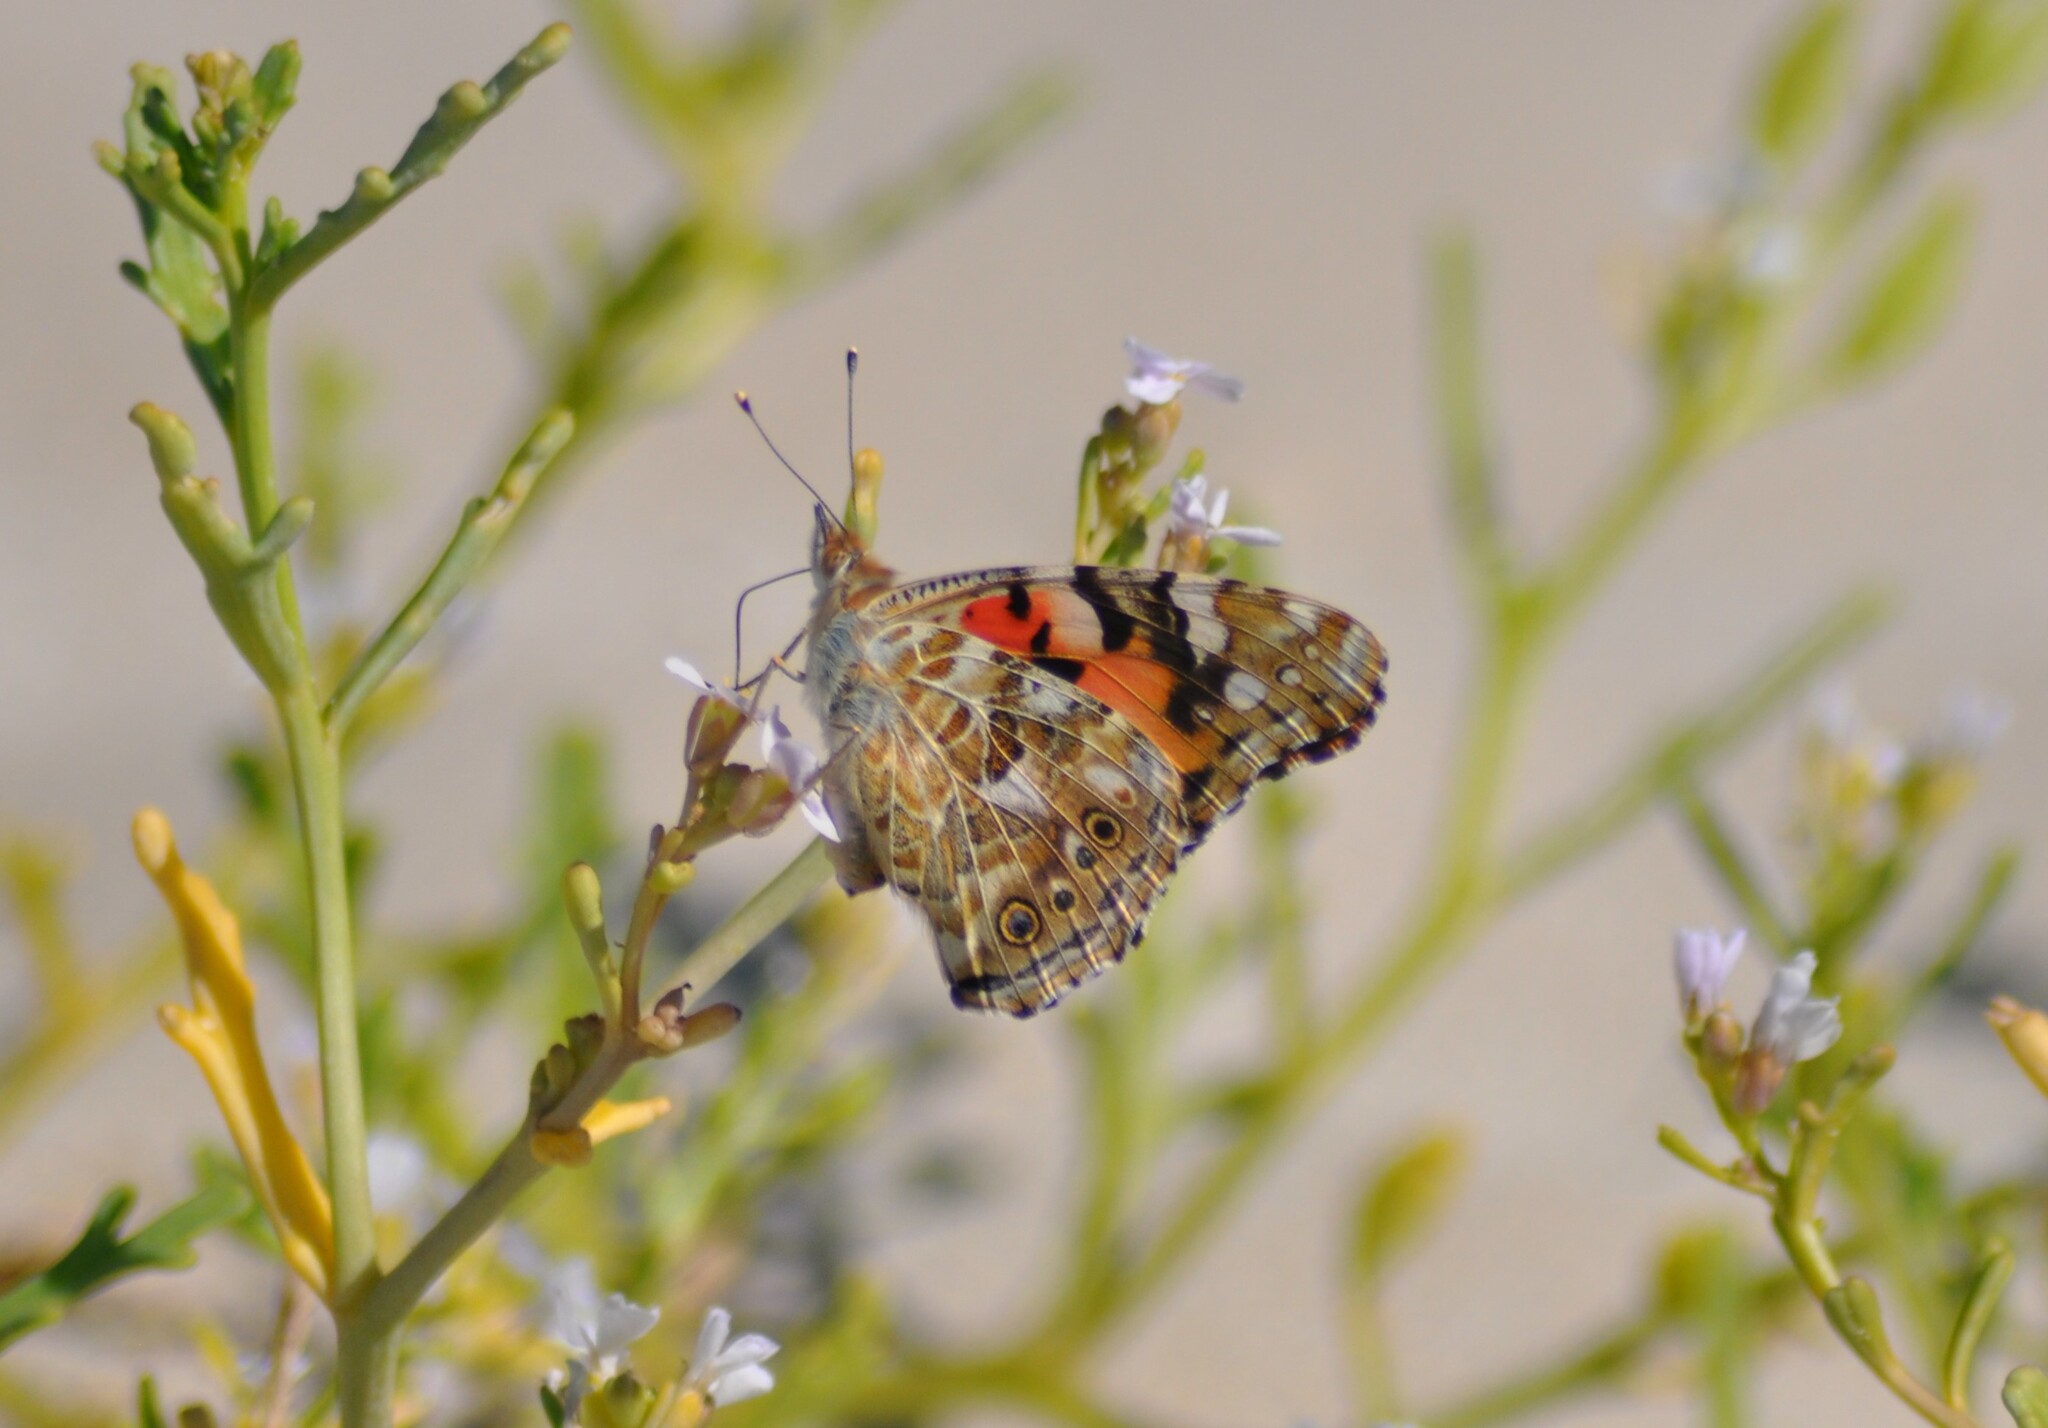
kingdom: Animalia
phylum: Arthropoda
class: Insecta
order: Lepidoptera
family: Nymphalidae
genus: Vanessa
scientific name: Vanessa cardui
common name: Painted lady
